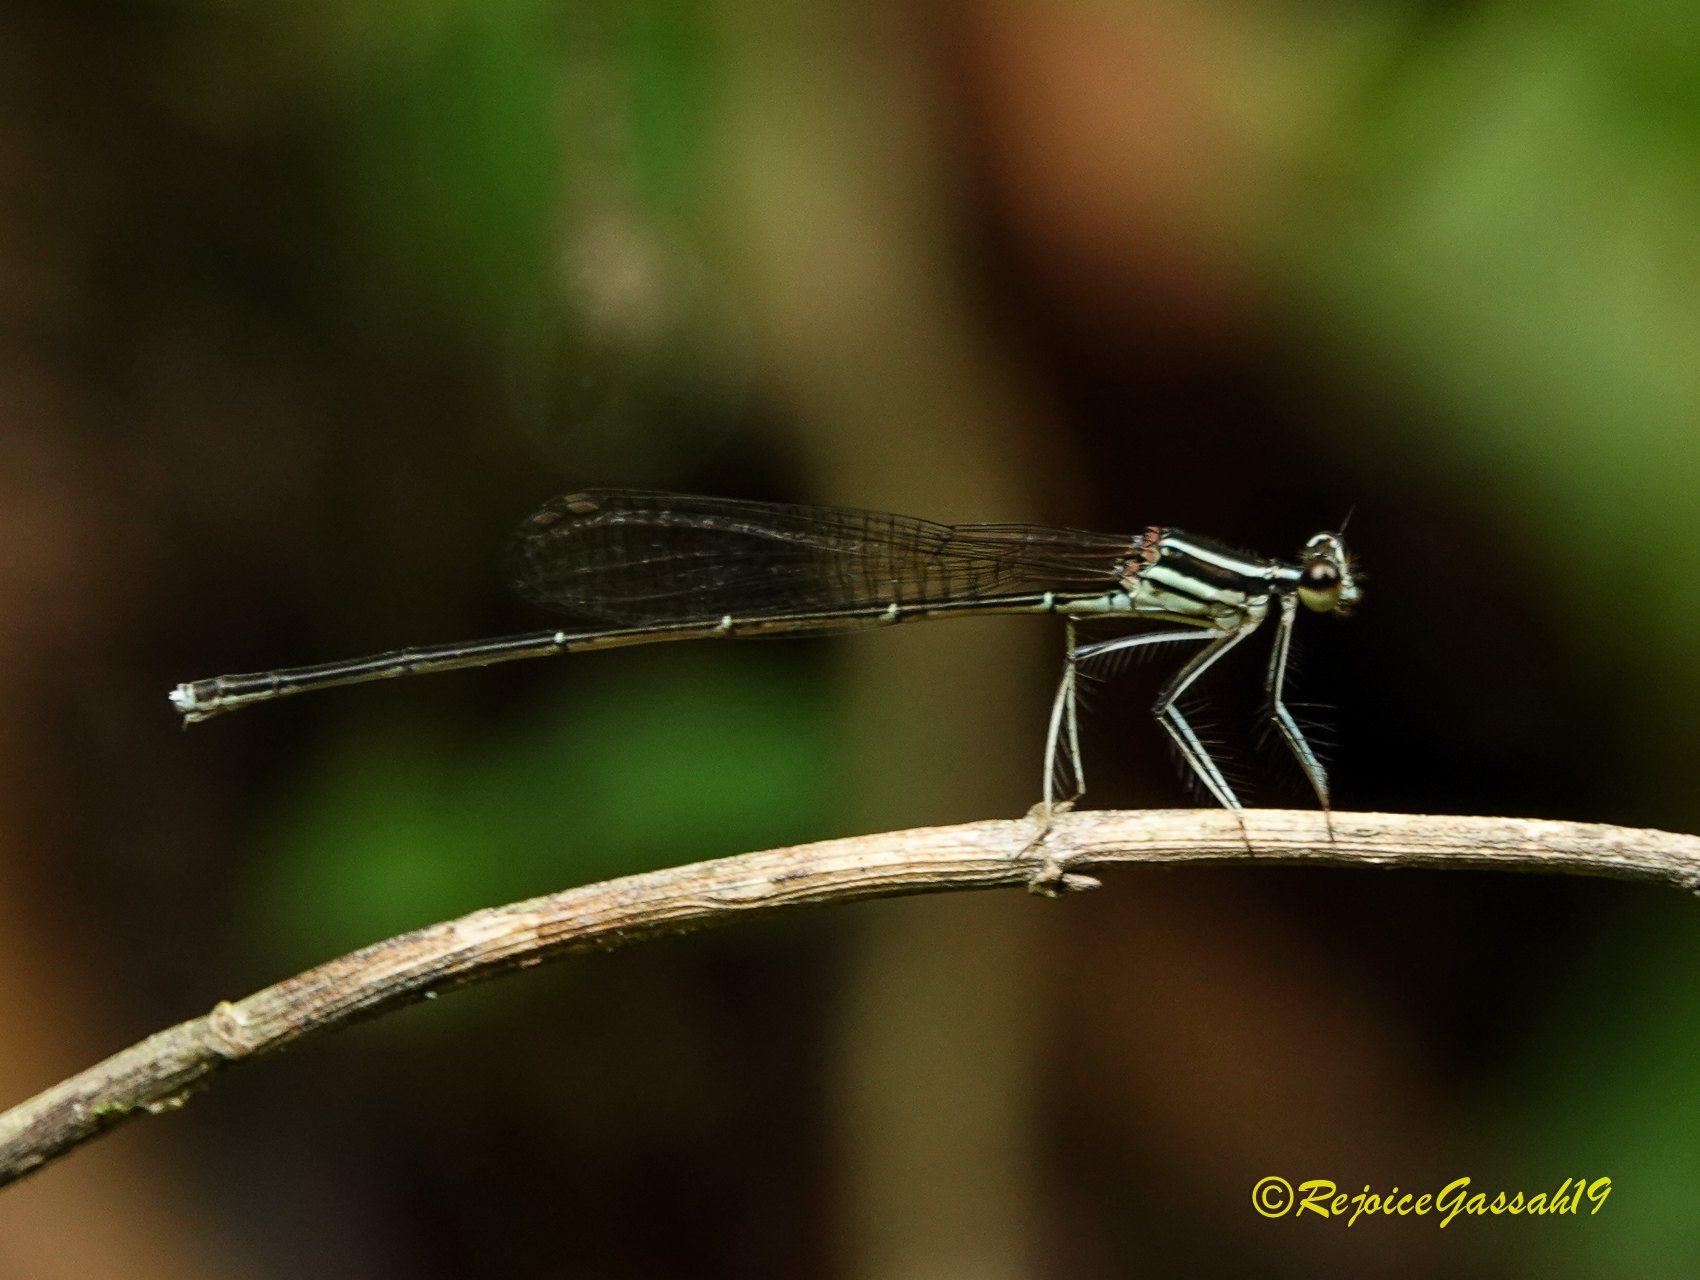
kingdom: Animalia
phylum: Arthropoda
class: Insecta
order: Odonata
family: Platycnemididae
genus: Pseudocopera
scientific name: Pseudocopera ciliata
